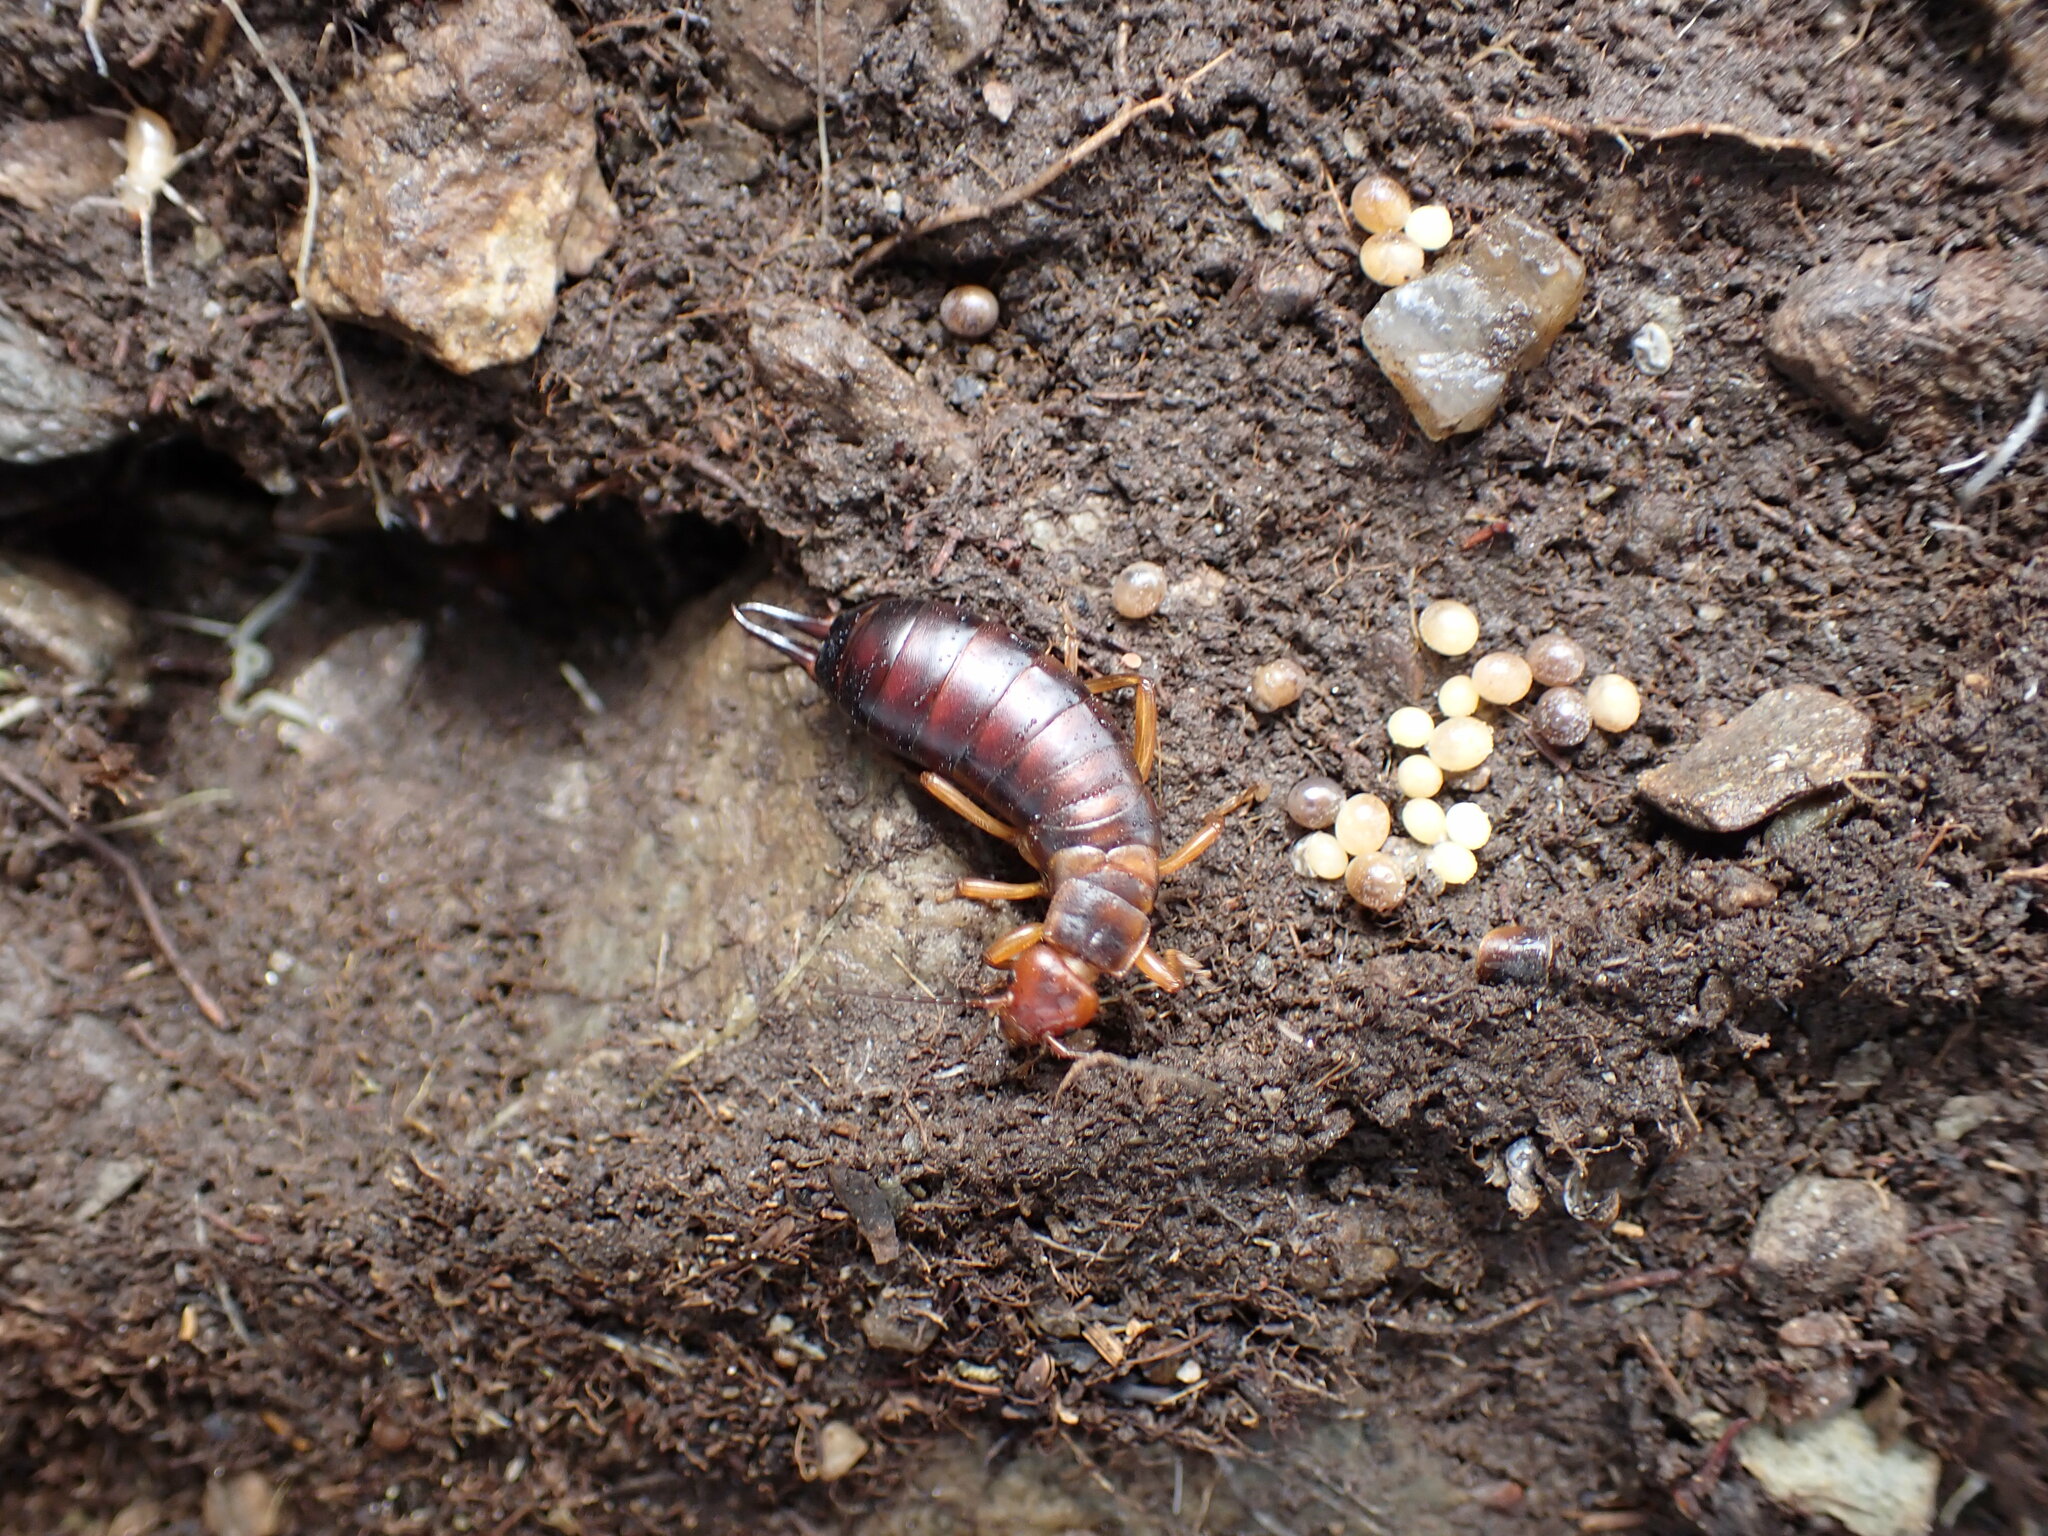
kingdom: Animalia
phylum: Arthropoda
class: Insecta
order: Dermaptera
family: Forficulidae
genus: Chelidura
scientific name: Chelidura pyrenaica
